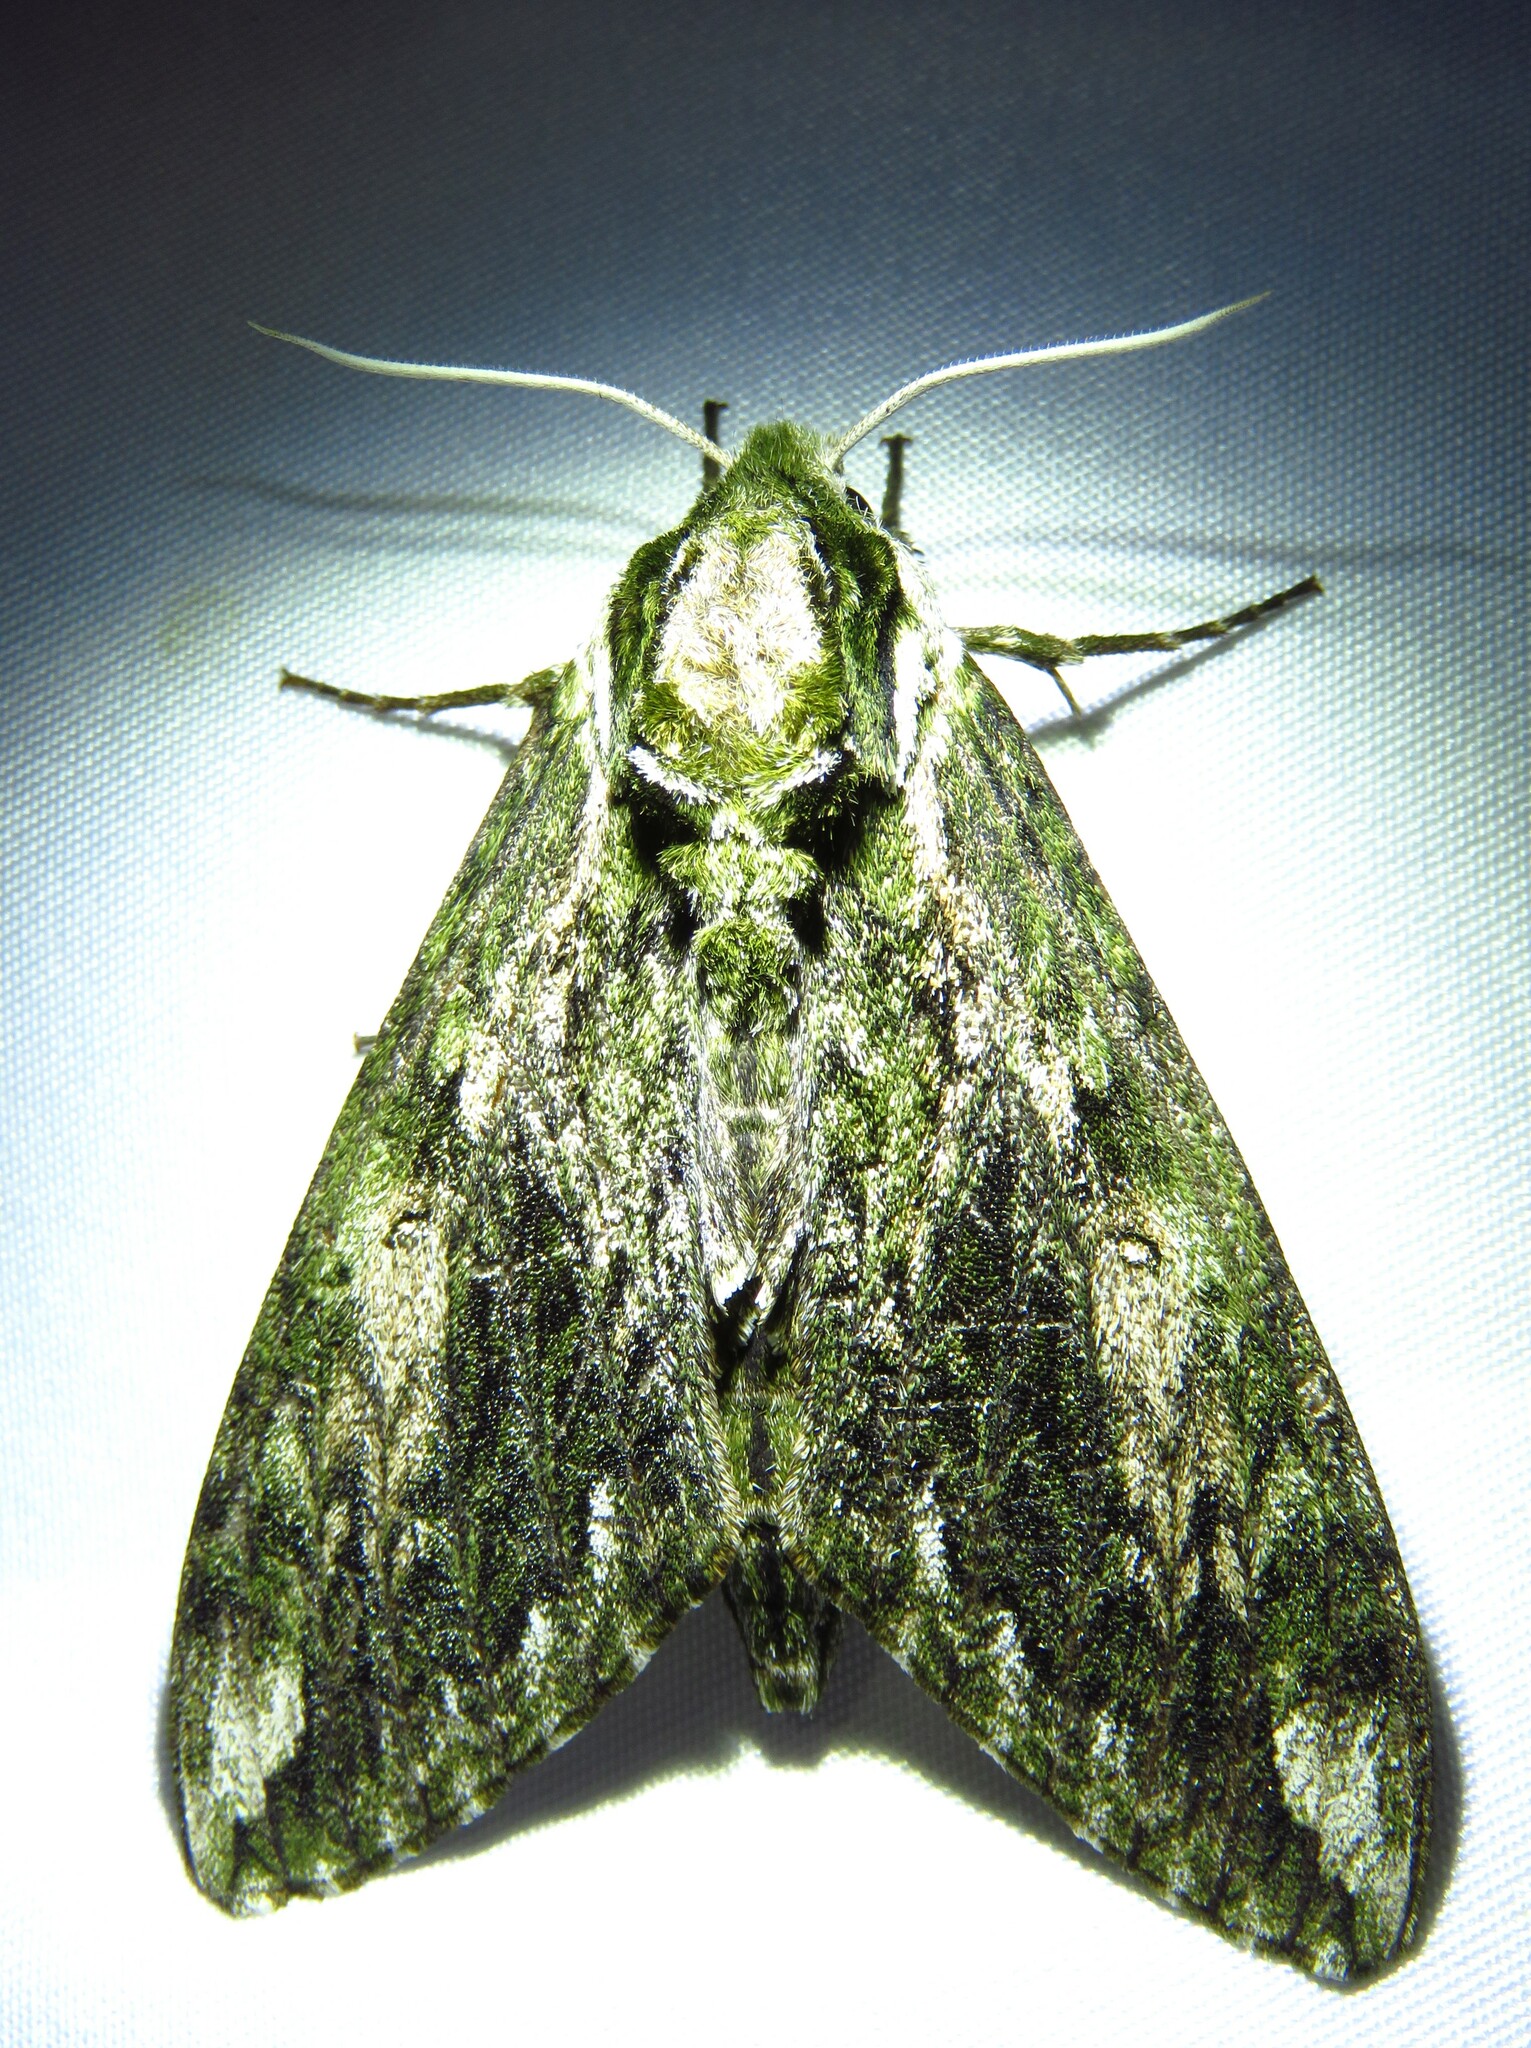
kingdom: Animalia
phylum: Arthropoda
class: Insecta
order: Lepidoptera
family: Sphingidae
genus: Ceratomia
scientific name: Ceratomia hageni
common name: Hagen's sphinx
